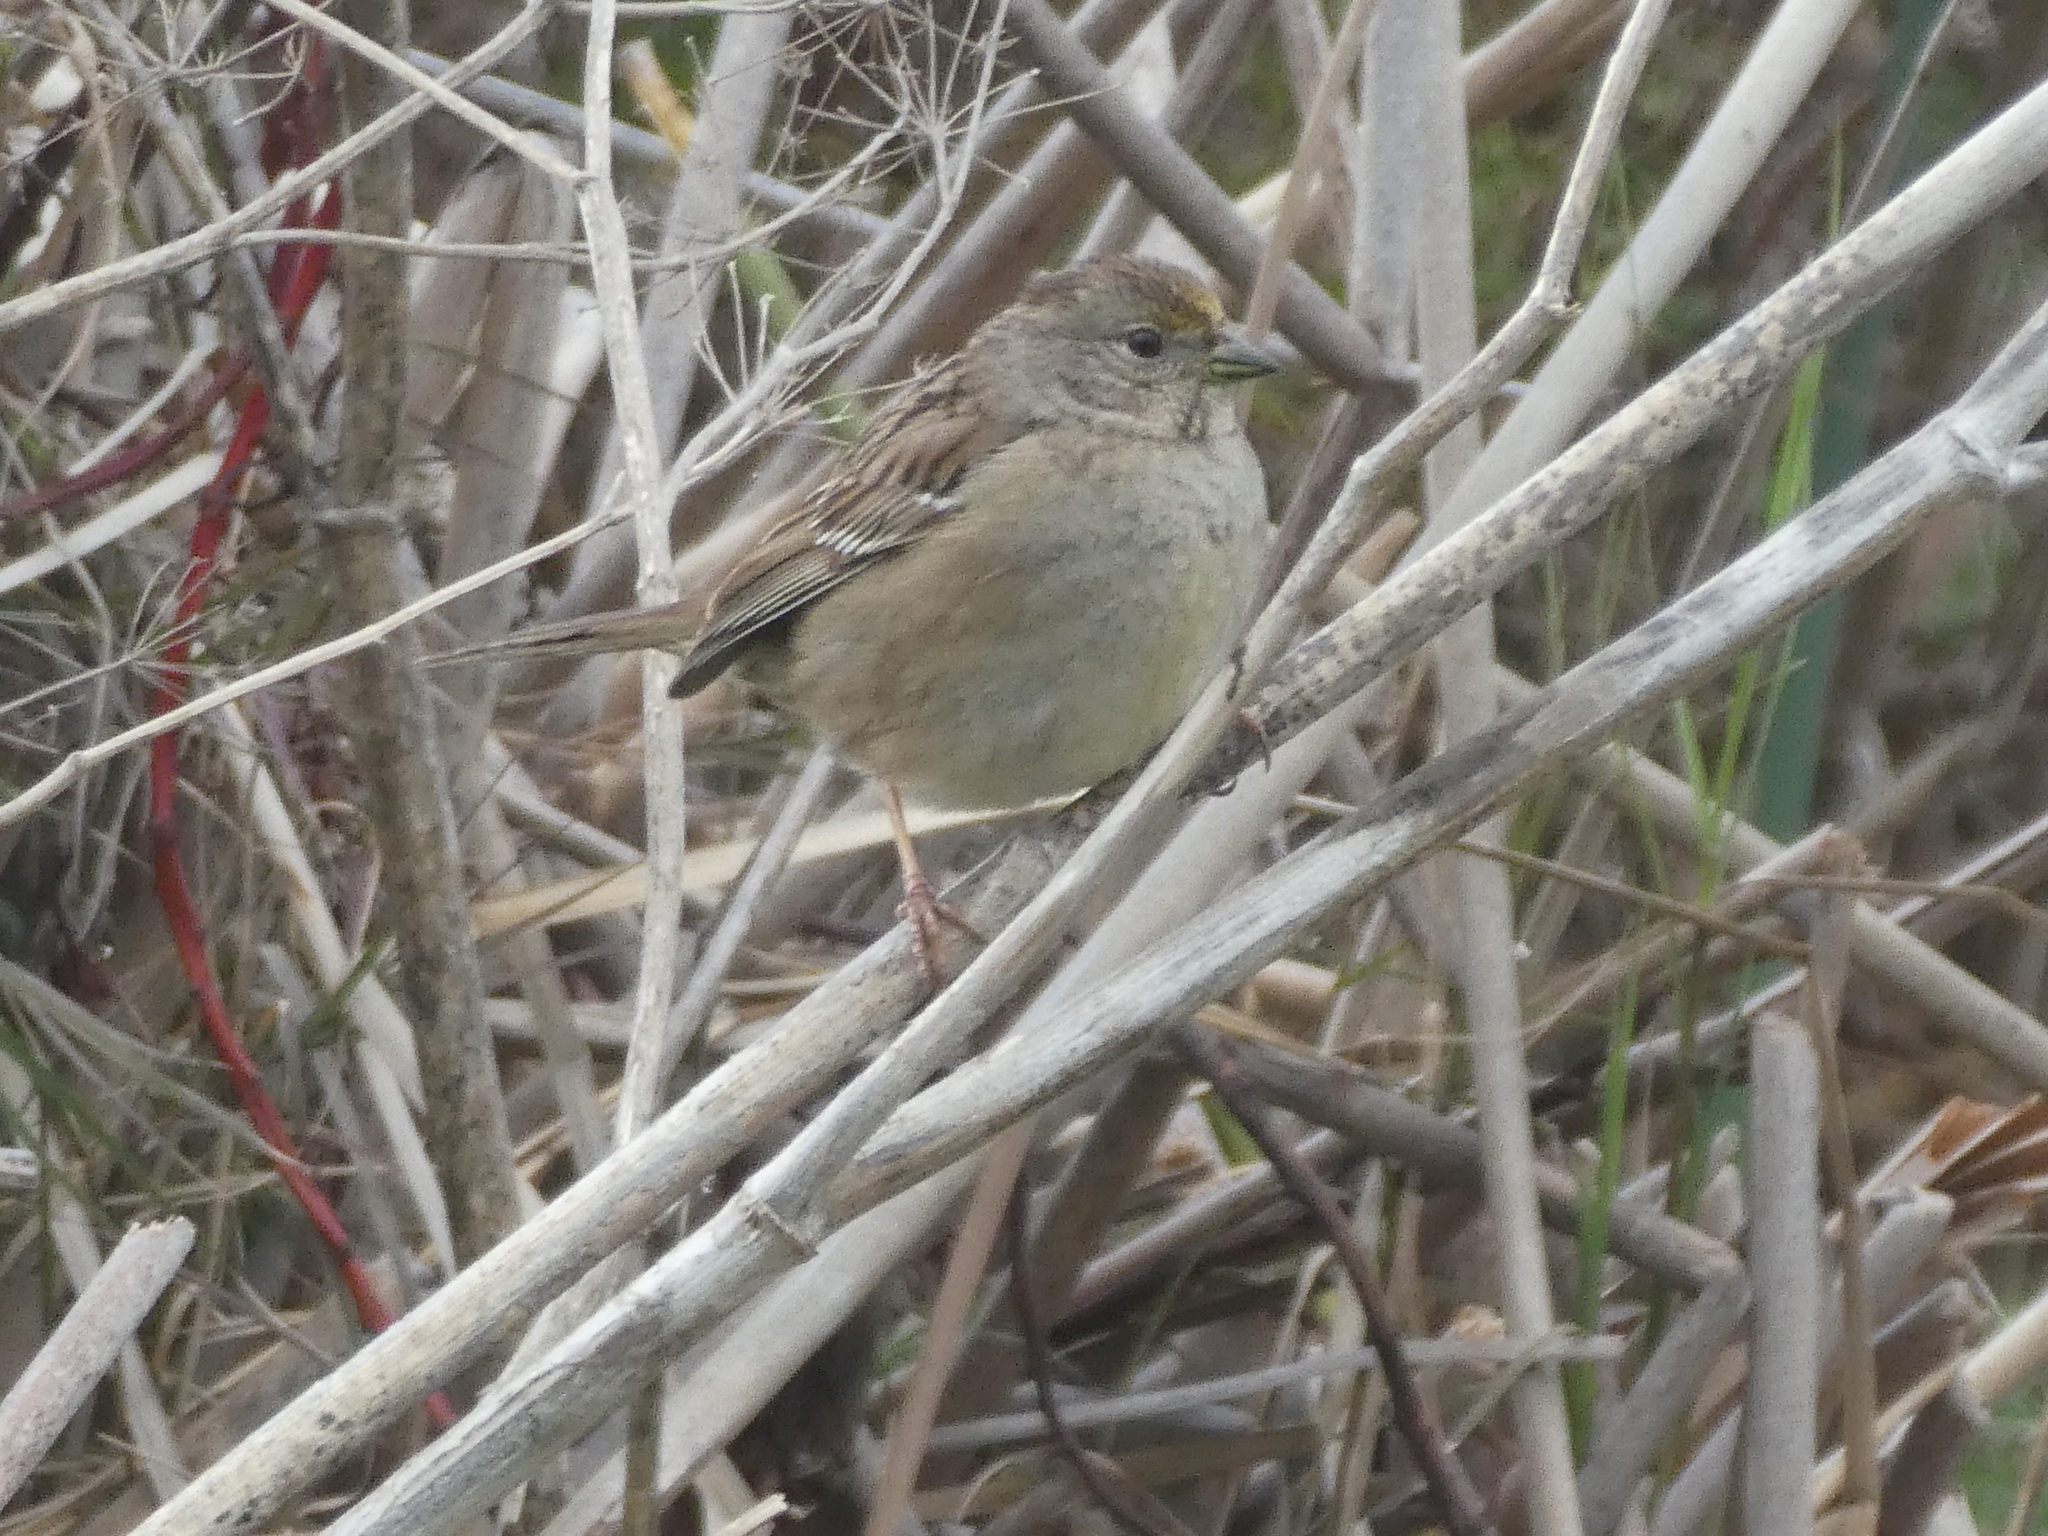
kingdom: Animalia
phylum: Chordata
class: Aves
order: Passeriformes
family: Passerellidae
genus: Zonotrichia
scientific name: Zonotrichia atricapilla
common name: Golden-crowned sparrow
